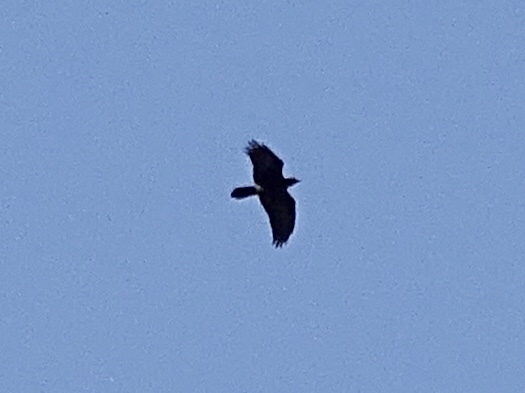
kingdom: Animalia
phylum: Chordata
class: Aves
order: Passeriformes
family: Corvidae
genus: Corvus
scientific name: Corvus corax
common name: Common raven
